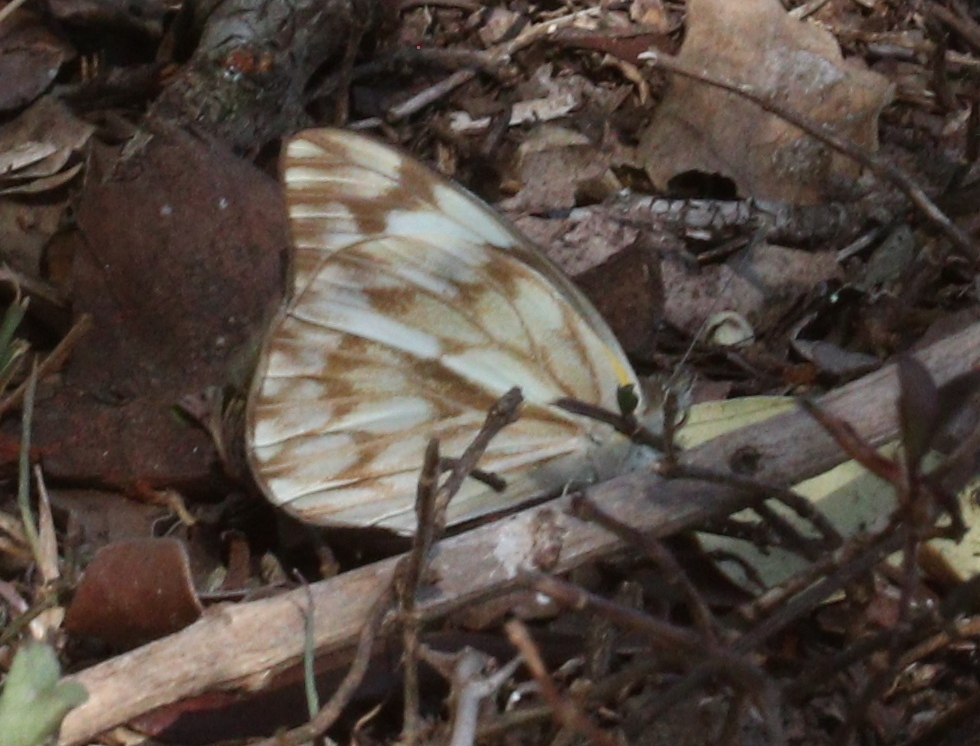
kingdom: Animalia
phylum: Arthropoda
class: Insecta
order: Lepidoptera
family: Pieridae
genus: Belenois
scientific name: Belenois gidica
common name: Pointed caper white
